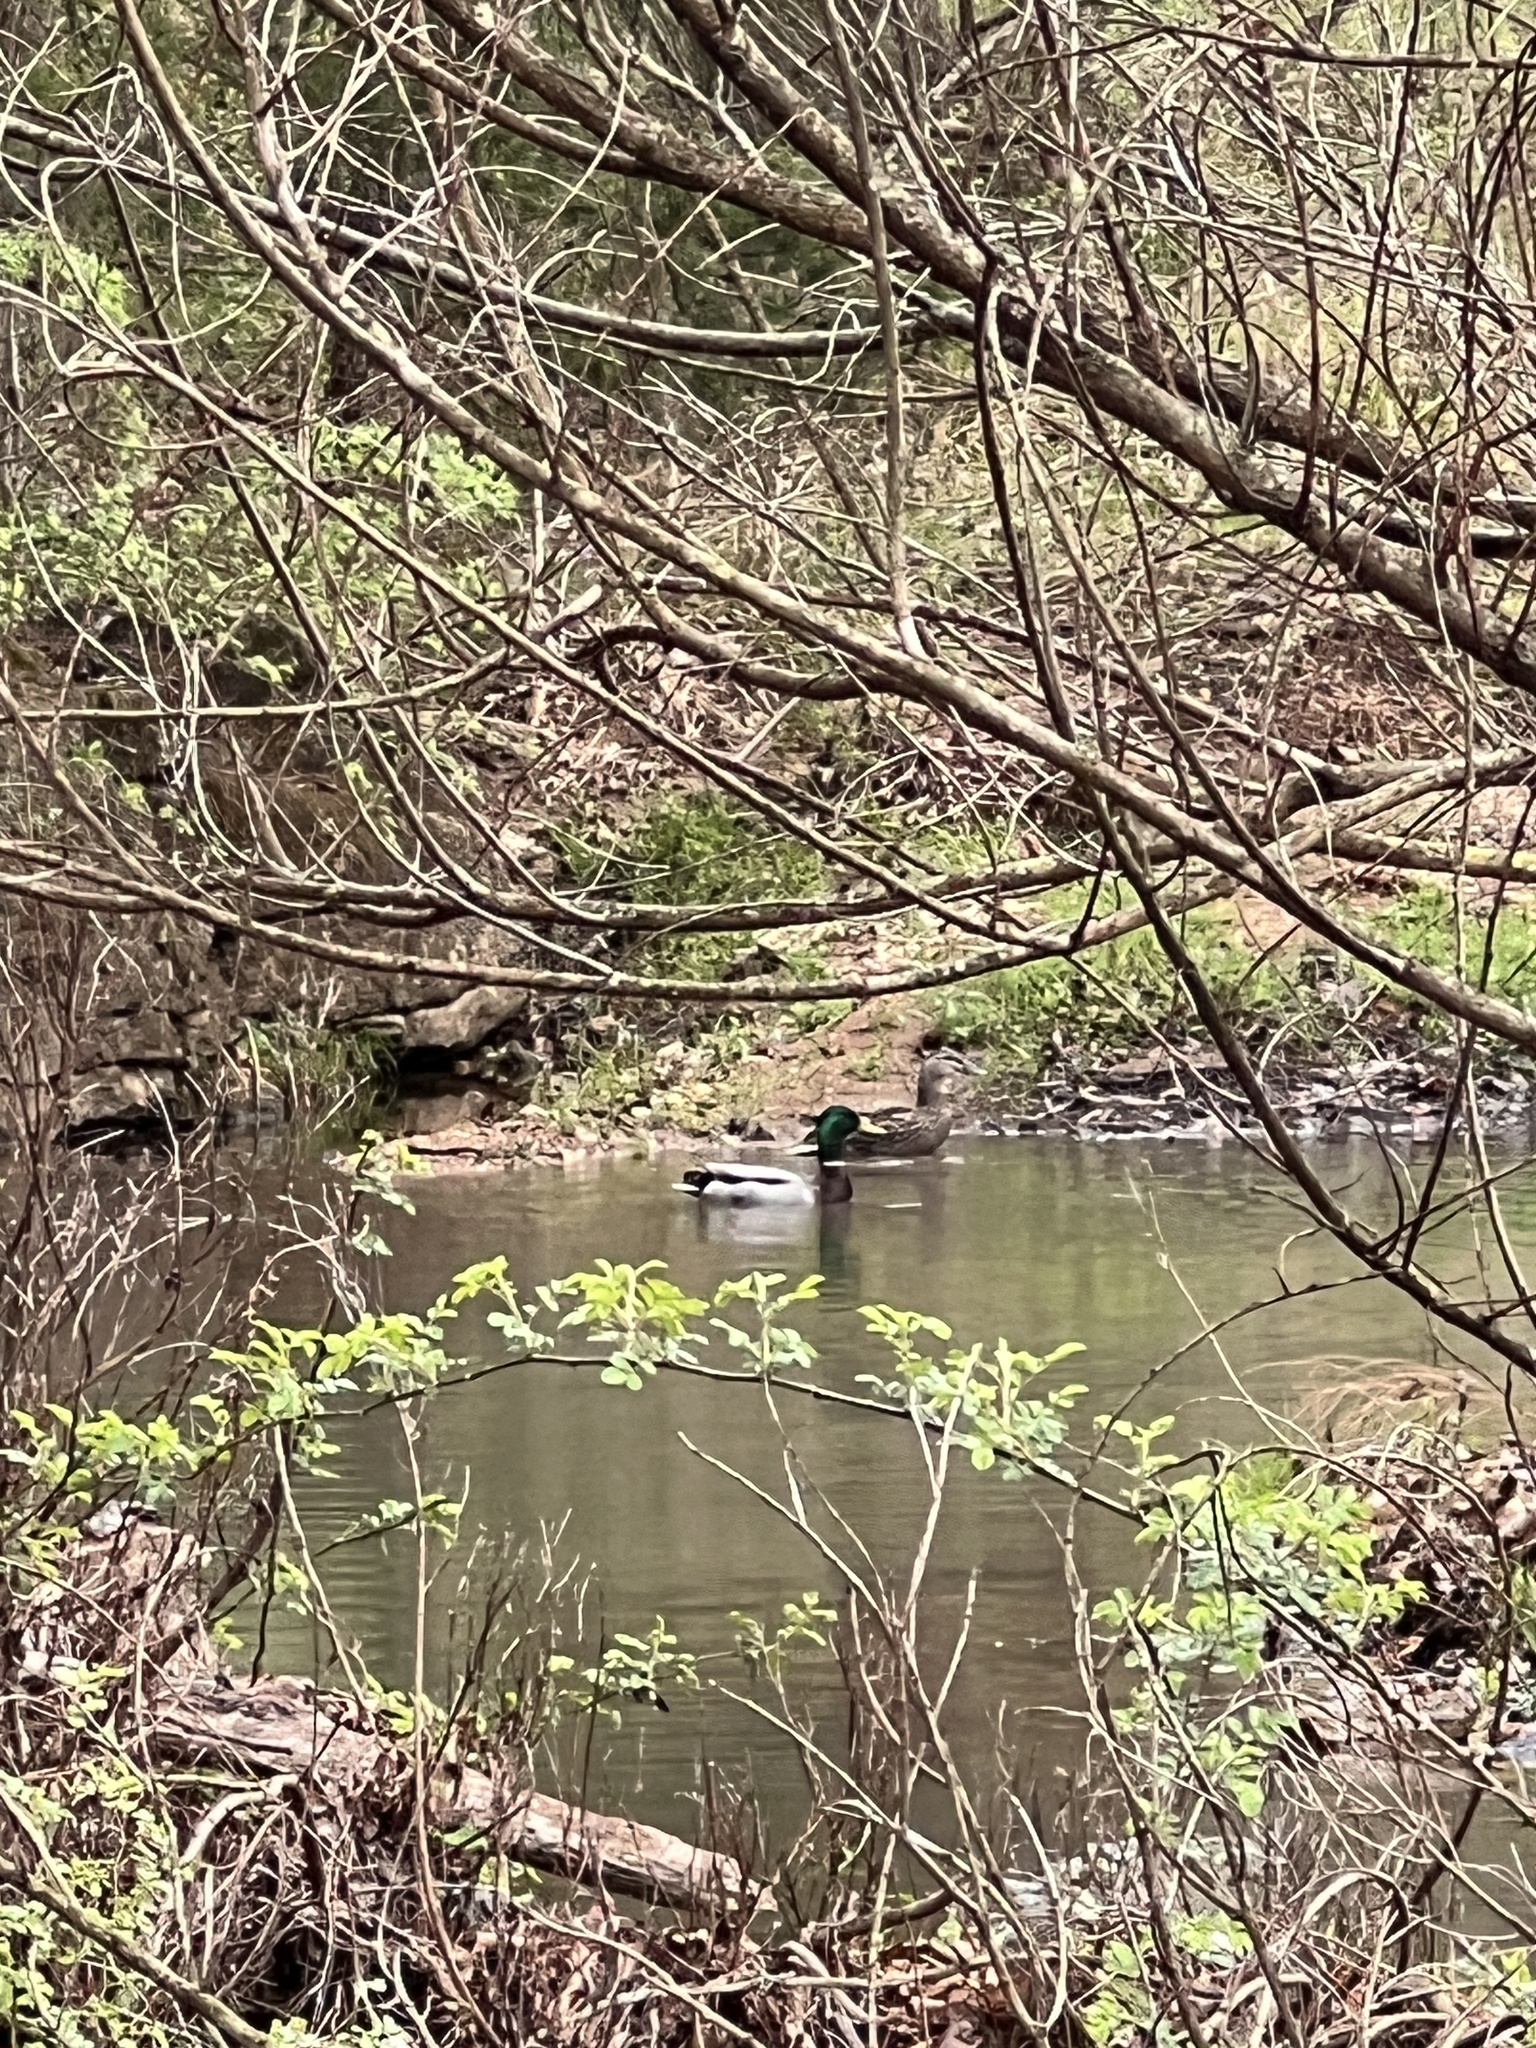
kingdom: Animalia
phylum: Chordata
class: Aves
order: Anseriformes
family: Anatidae
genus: Anas
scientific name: Anas platyrhynchos
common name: Mallard
